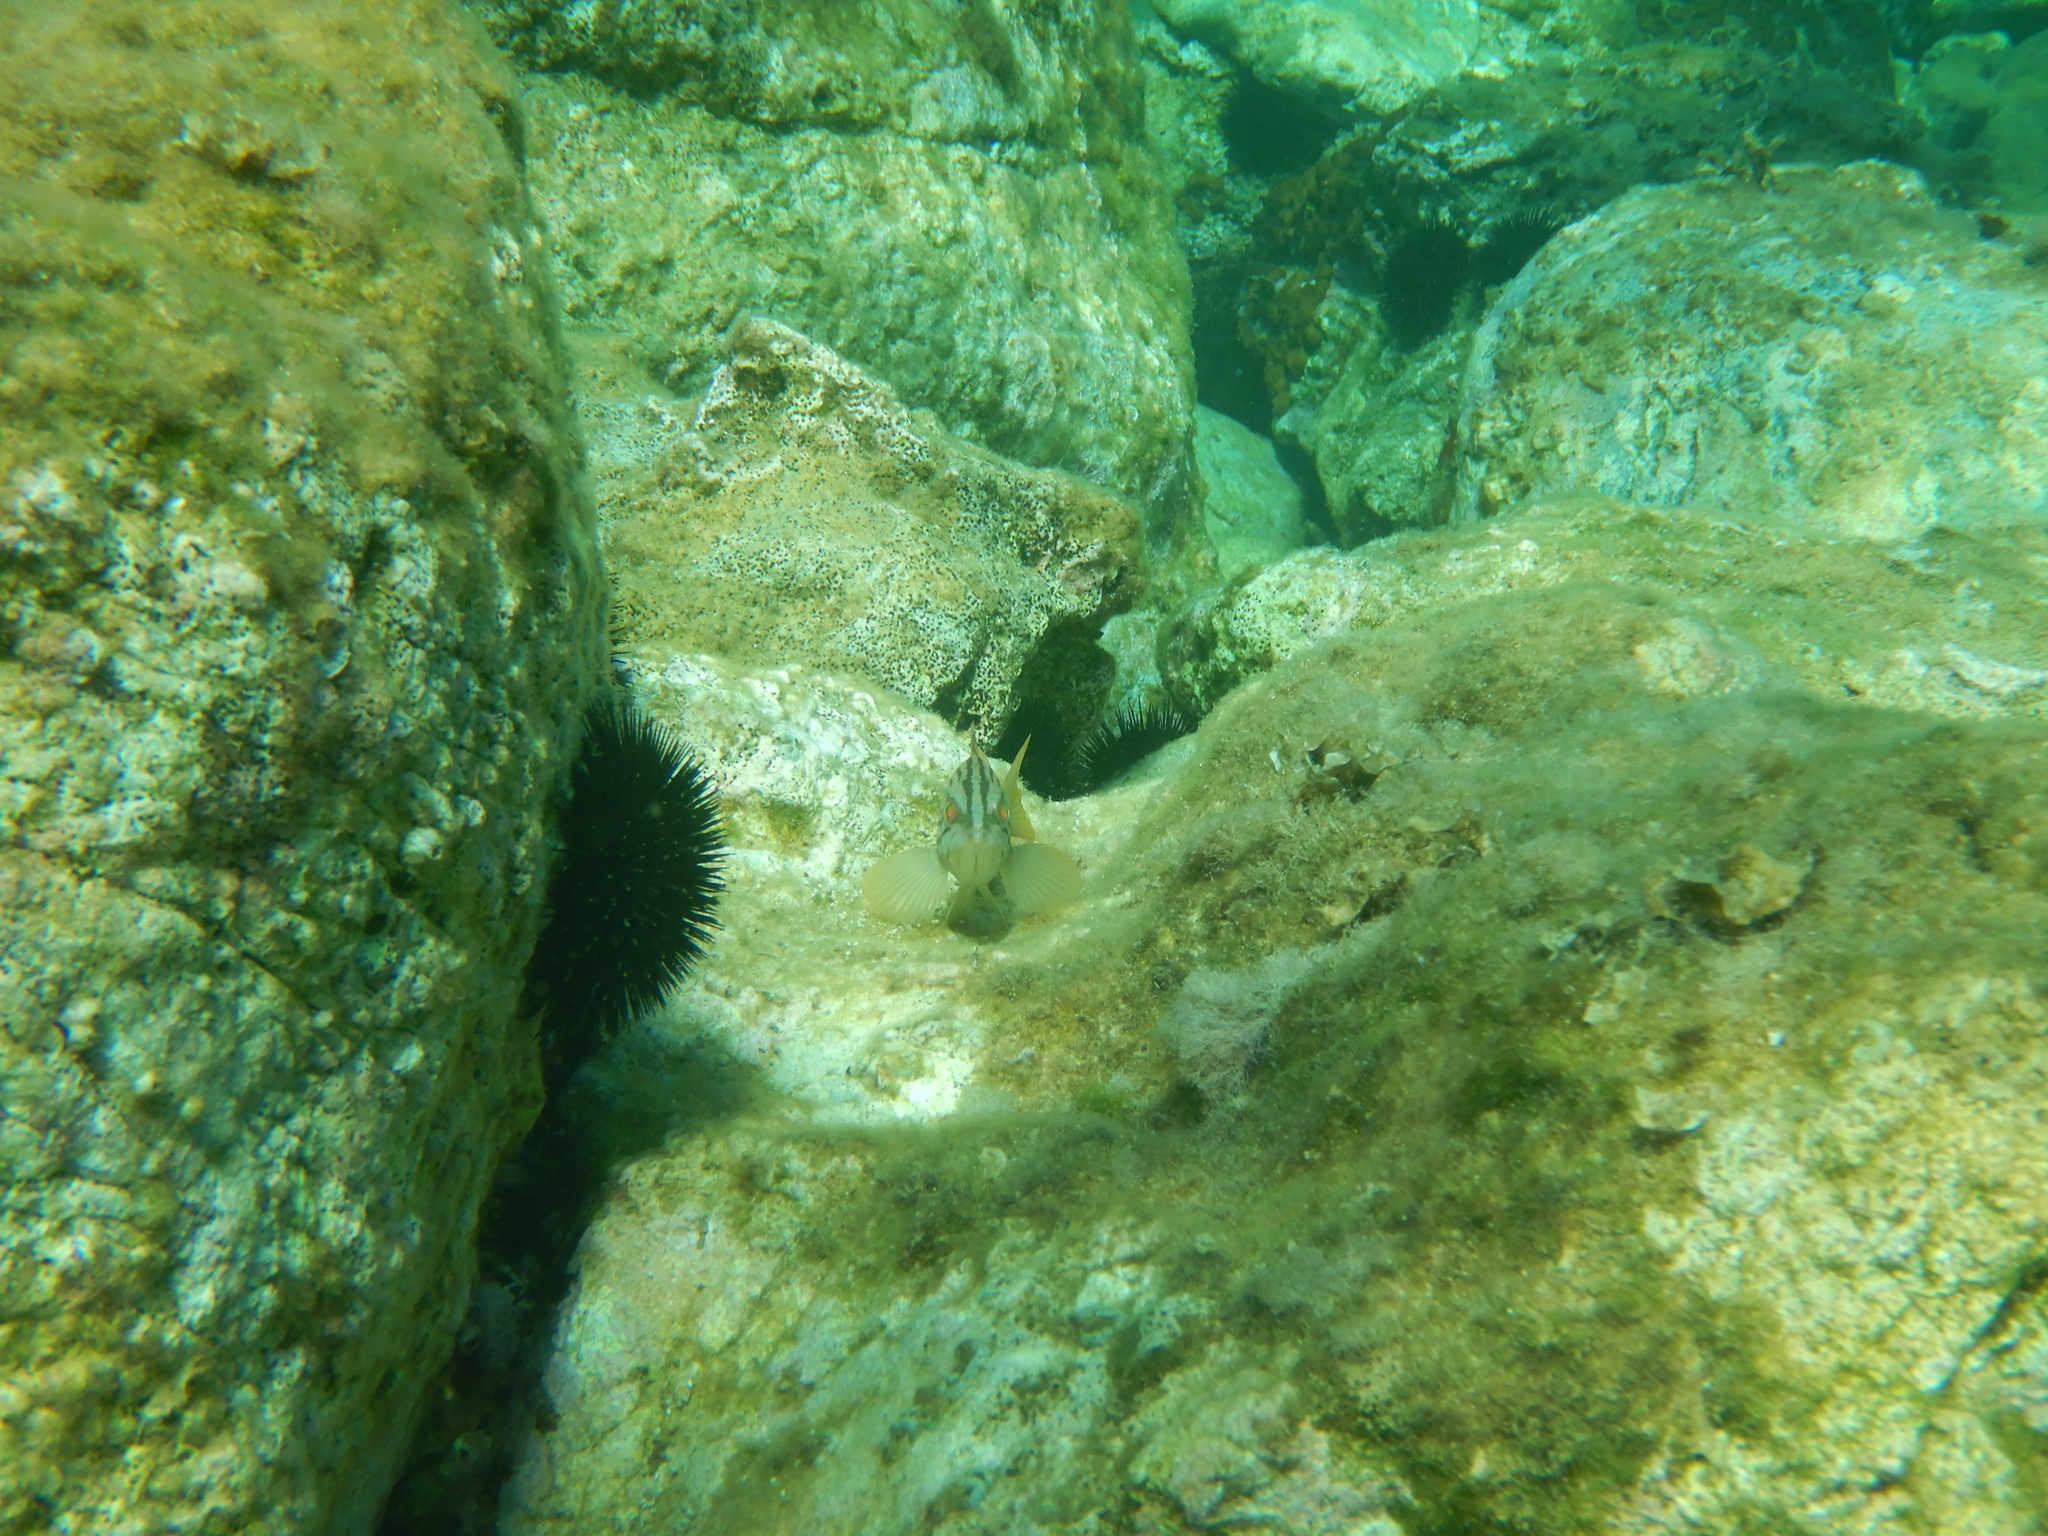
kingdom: Animalia
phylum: Chordata
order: Perciformes
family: Serranidae
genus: Epinephelus
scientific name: Epinephelus costae
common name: Goldblotch grouper
